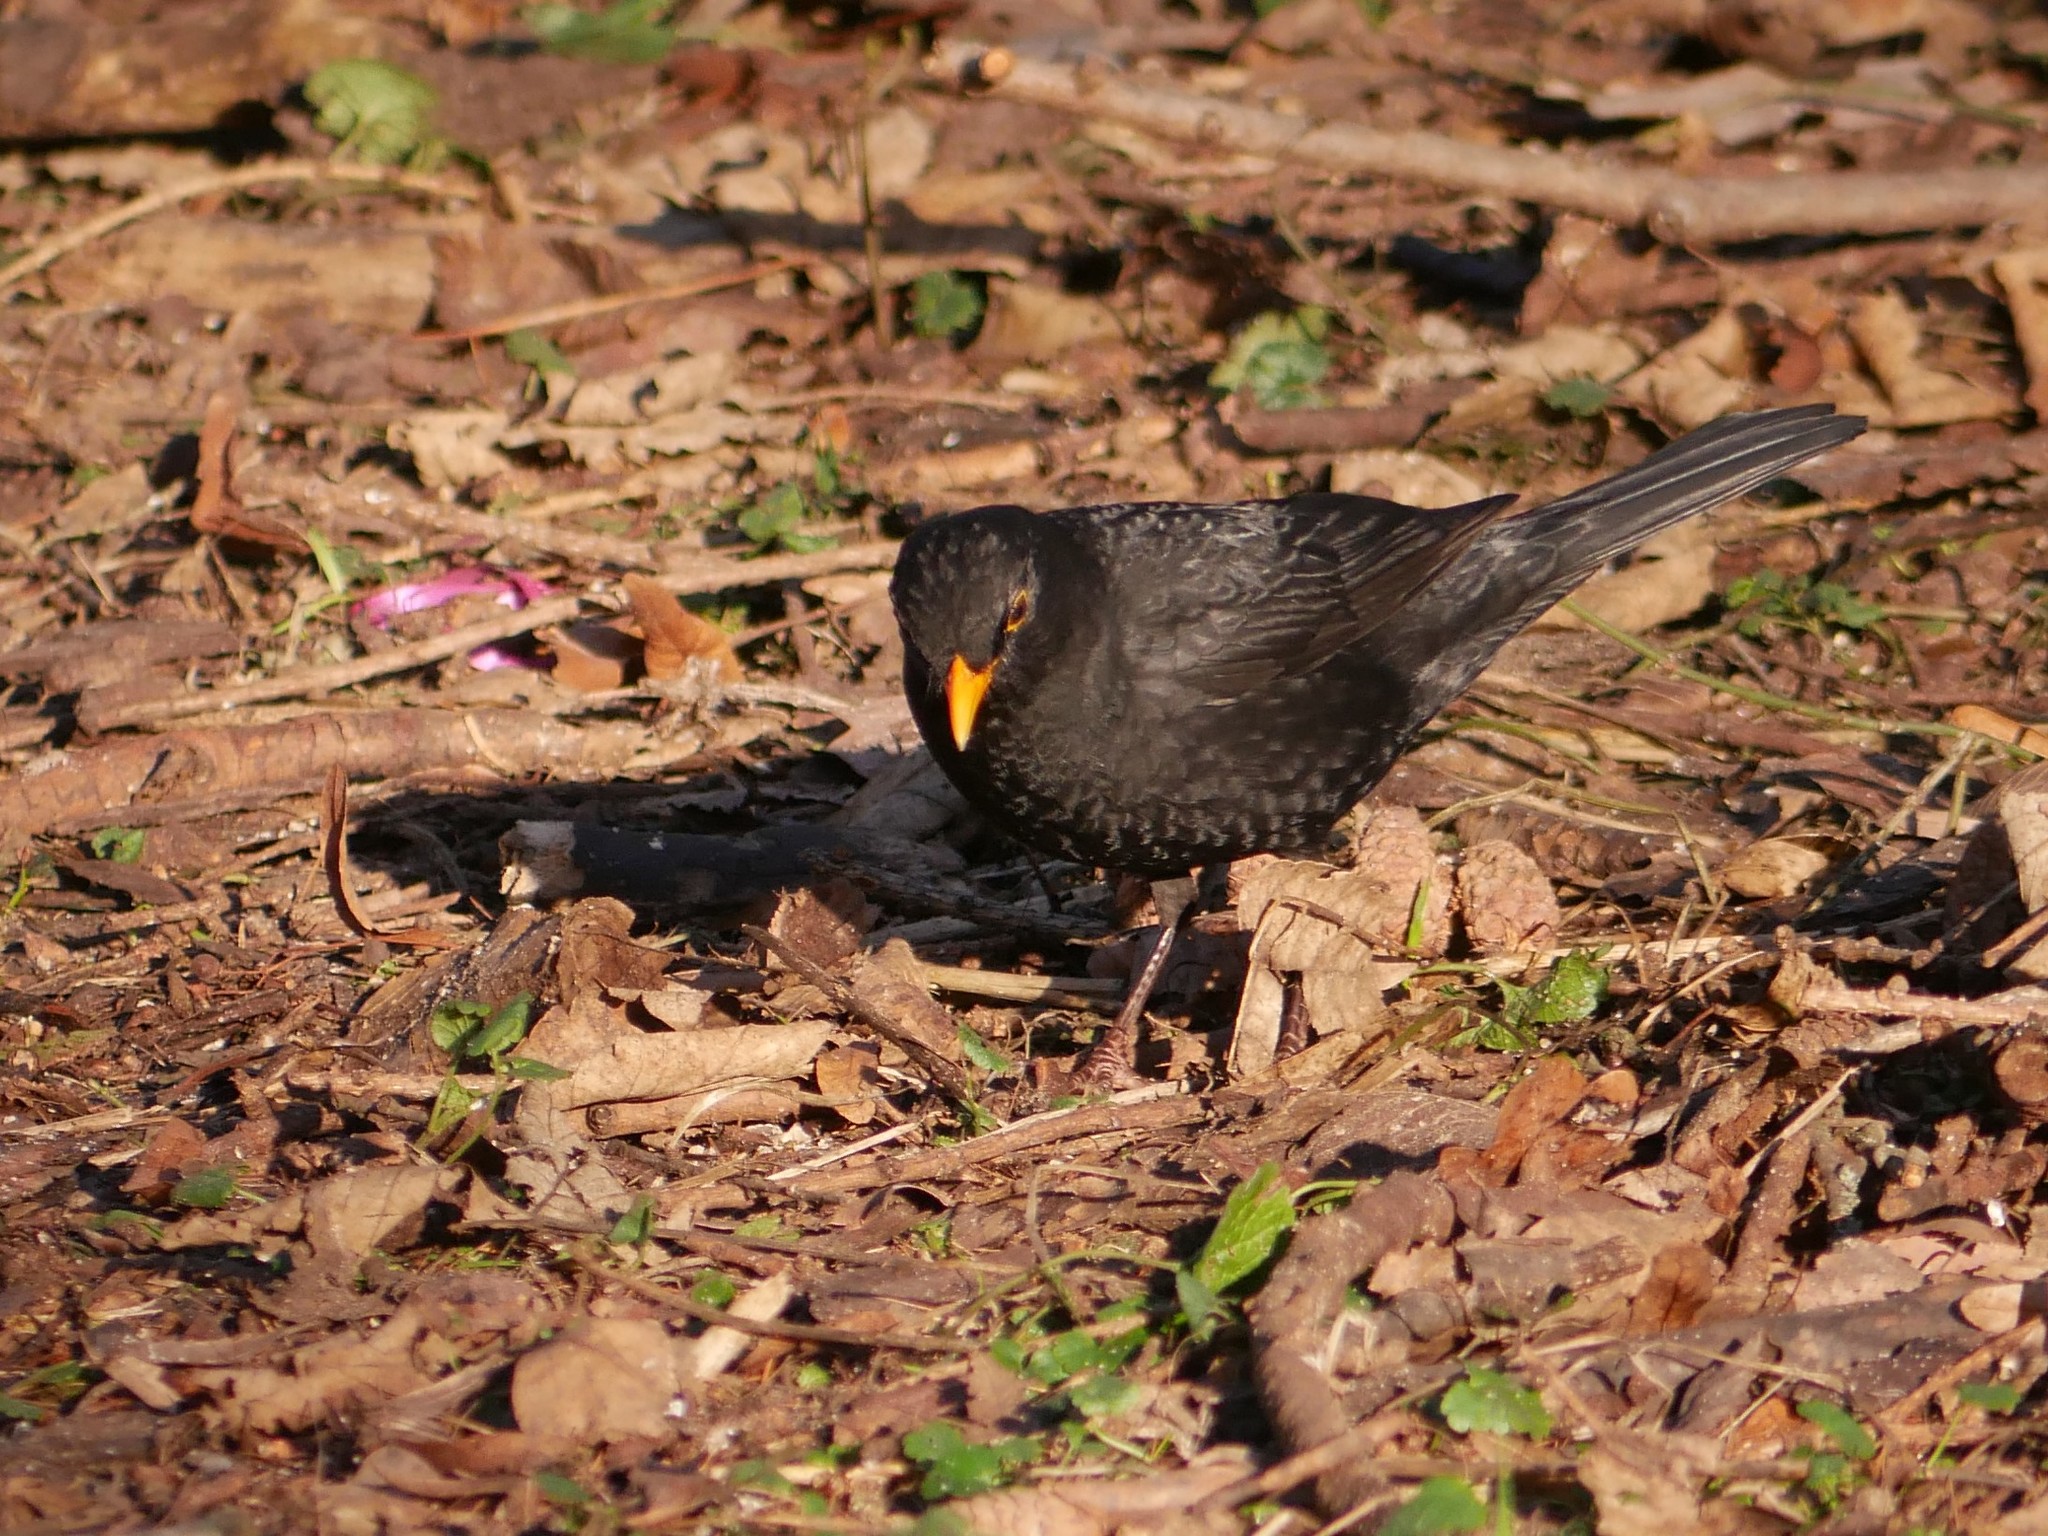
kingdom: Animalia
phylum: Chordata
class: Aves
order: Passeriformes
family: Turdidae
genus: Turdus
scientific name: Turdus merula
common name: Common blackbird
